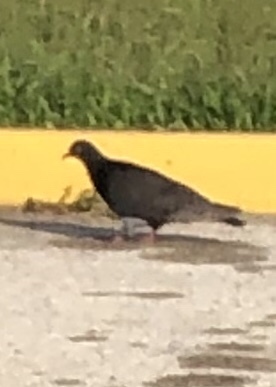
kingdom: Animalia
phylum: Chordata
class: Aves
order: Columbiformes
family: Columbidae
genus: Columba
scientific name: Columba livia
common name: Rock pigeon
